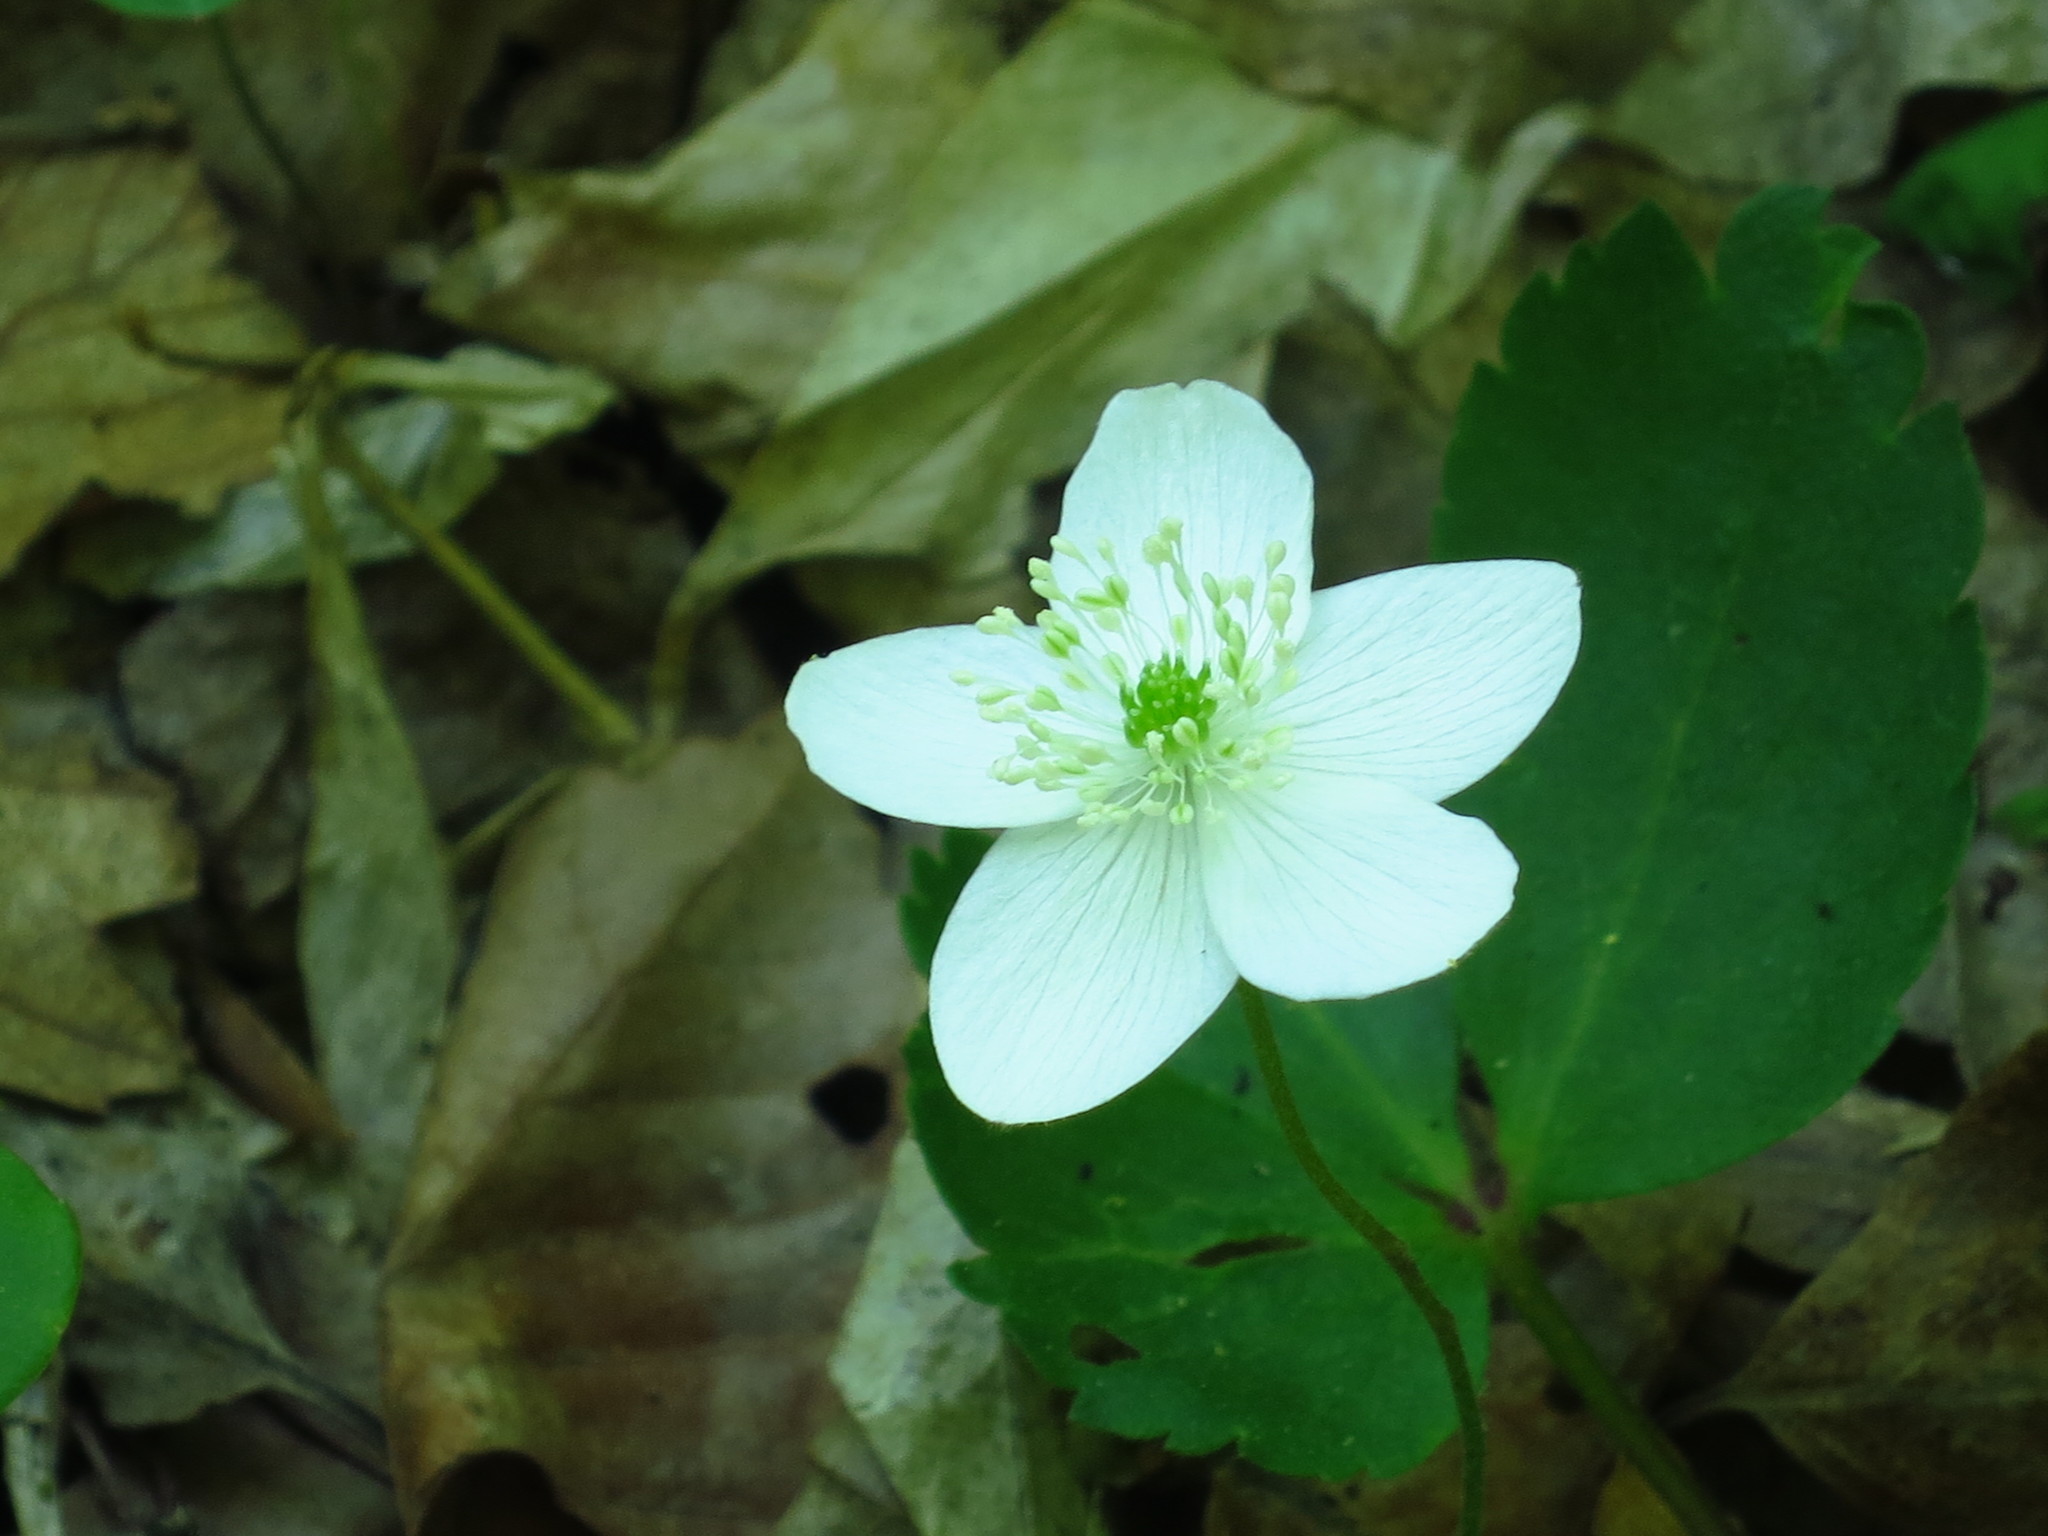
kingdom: Plantae
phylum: Tracheophyta
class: Magnoliopsida
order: Ranunculales
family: Ranunculaceae
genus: Anemone
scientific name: Anemone udensis
